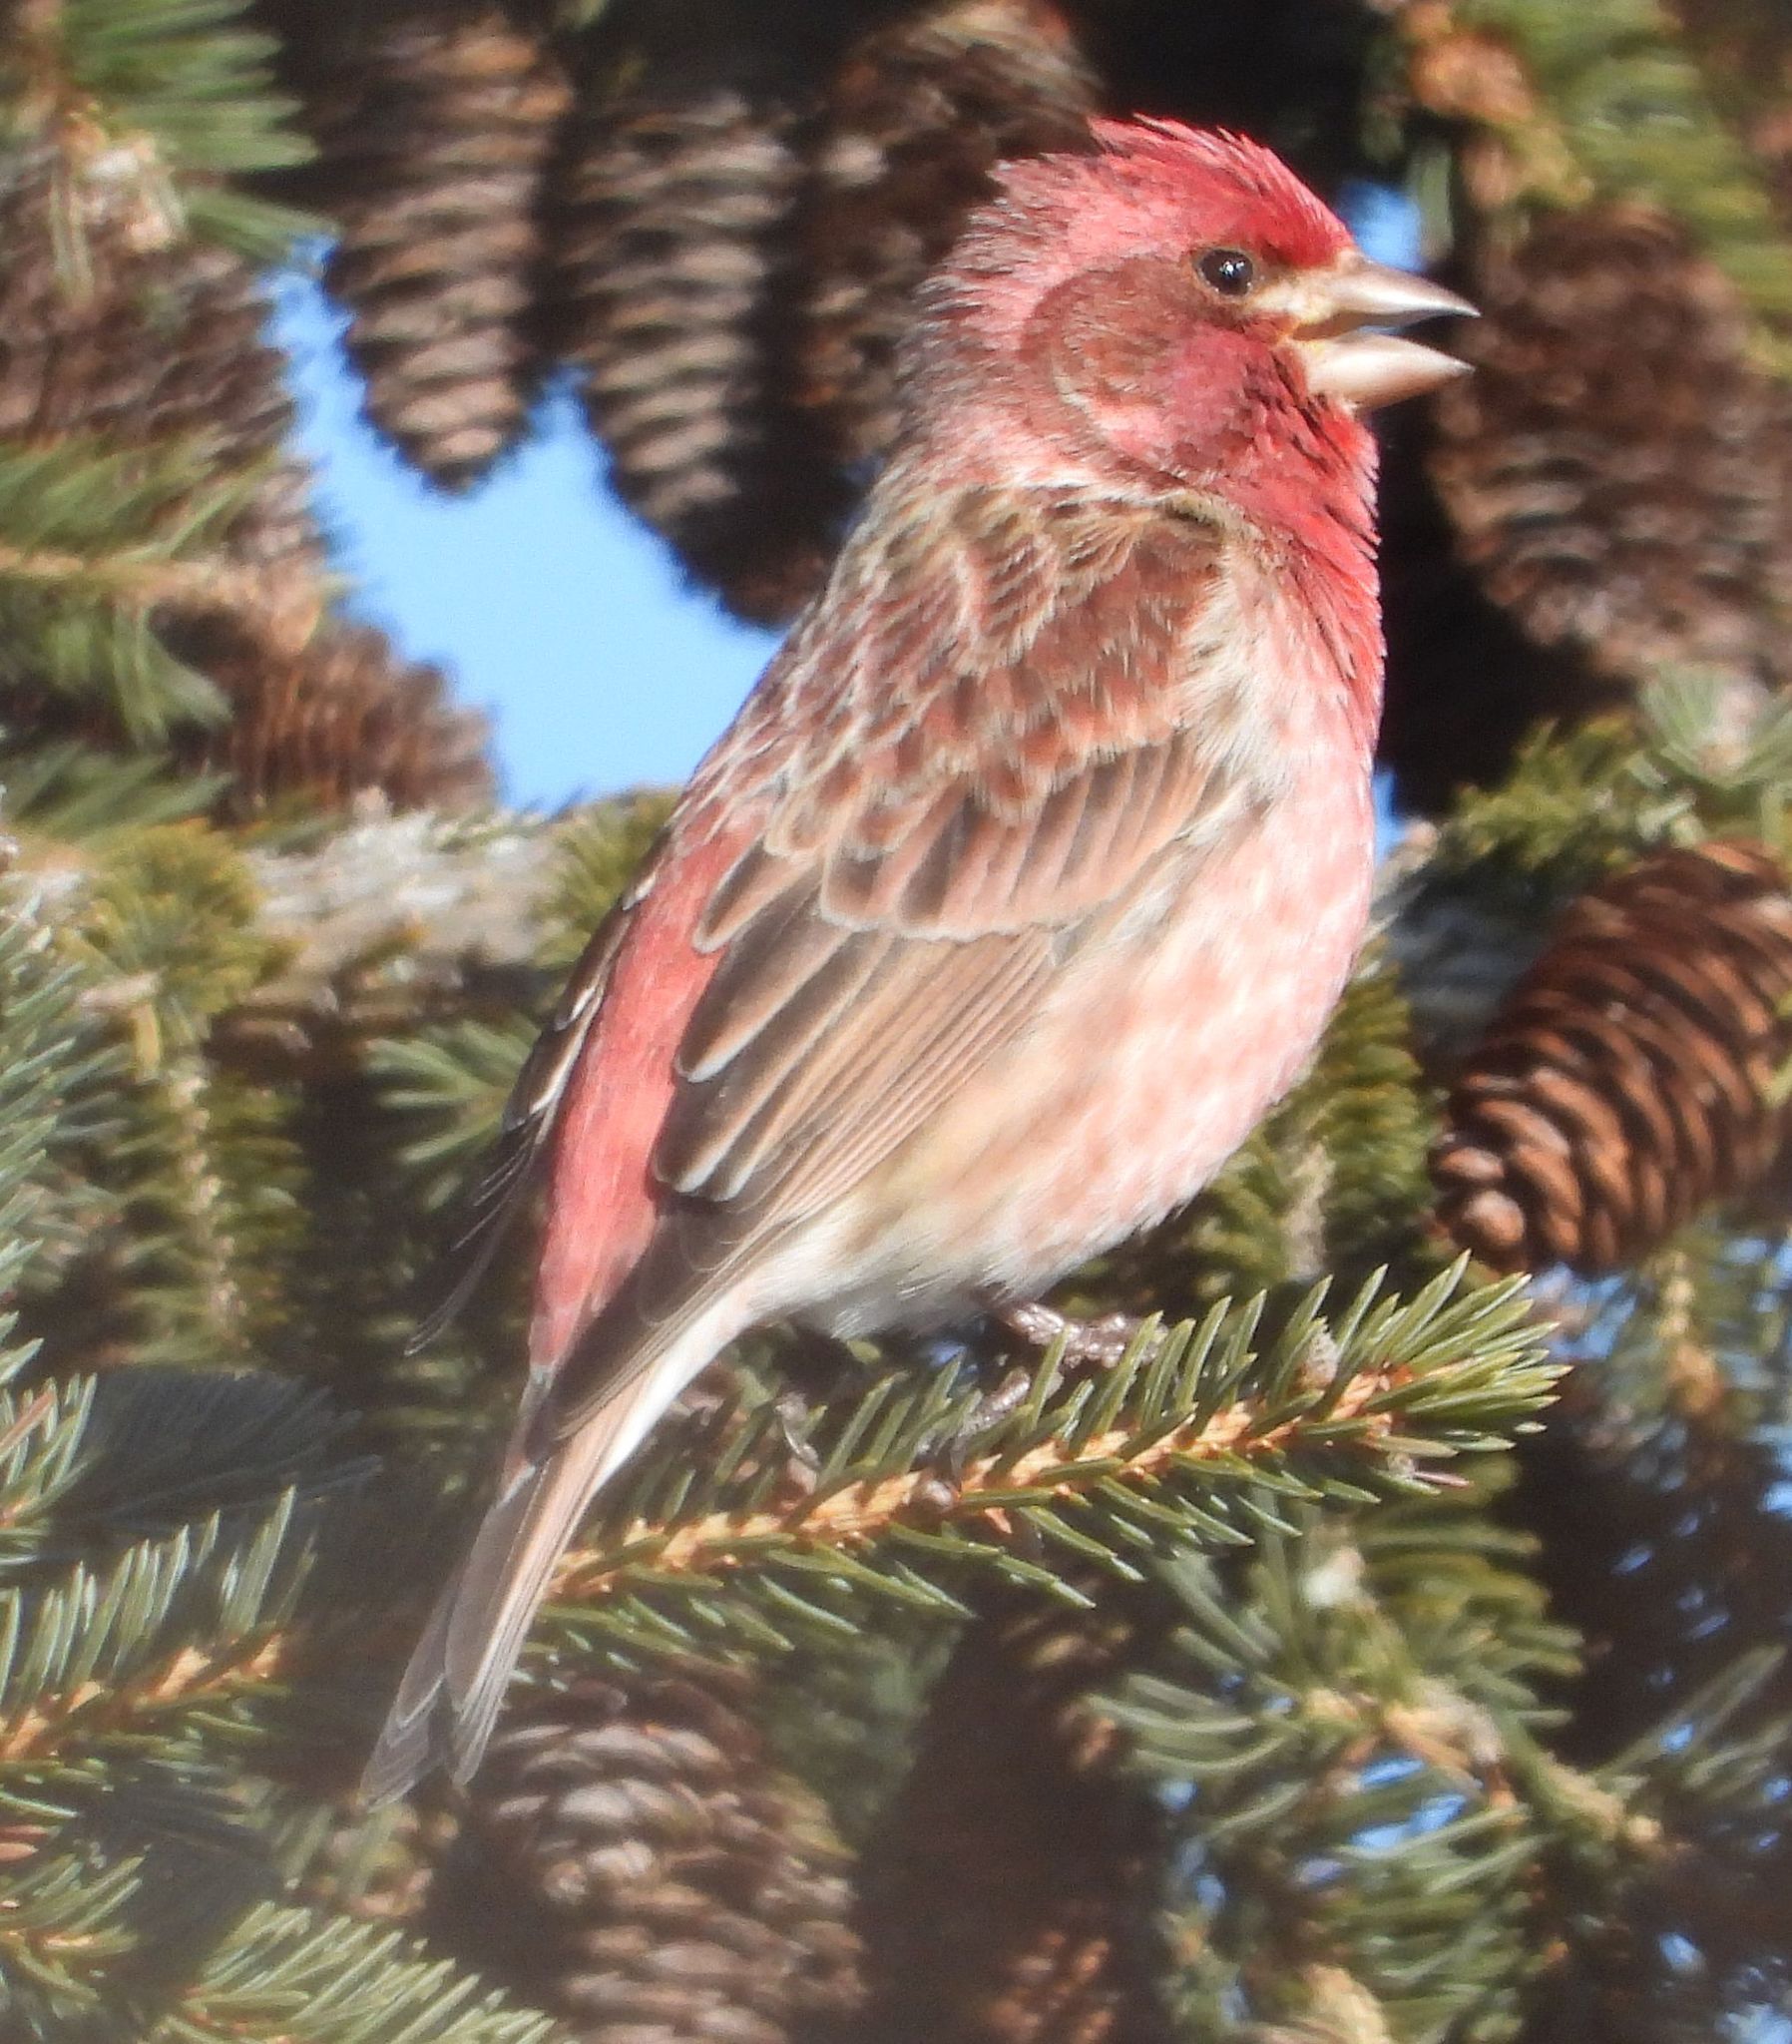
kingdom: Animalia
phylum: Chordata
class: Aves
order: Passeriformes
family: Fringillidae
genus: Haemorhous
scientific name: Haemorhous purpureus
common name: Purple finch
